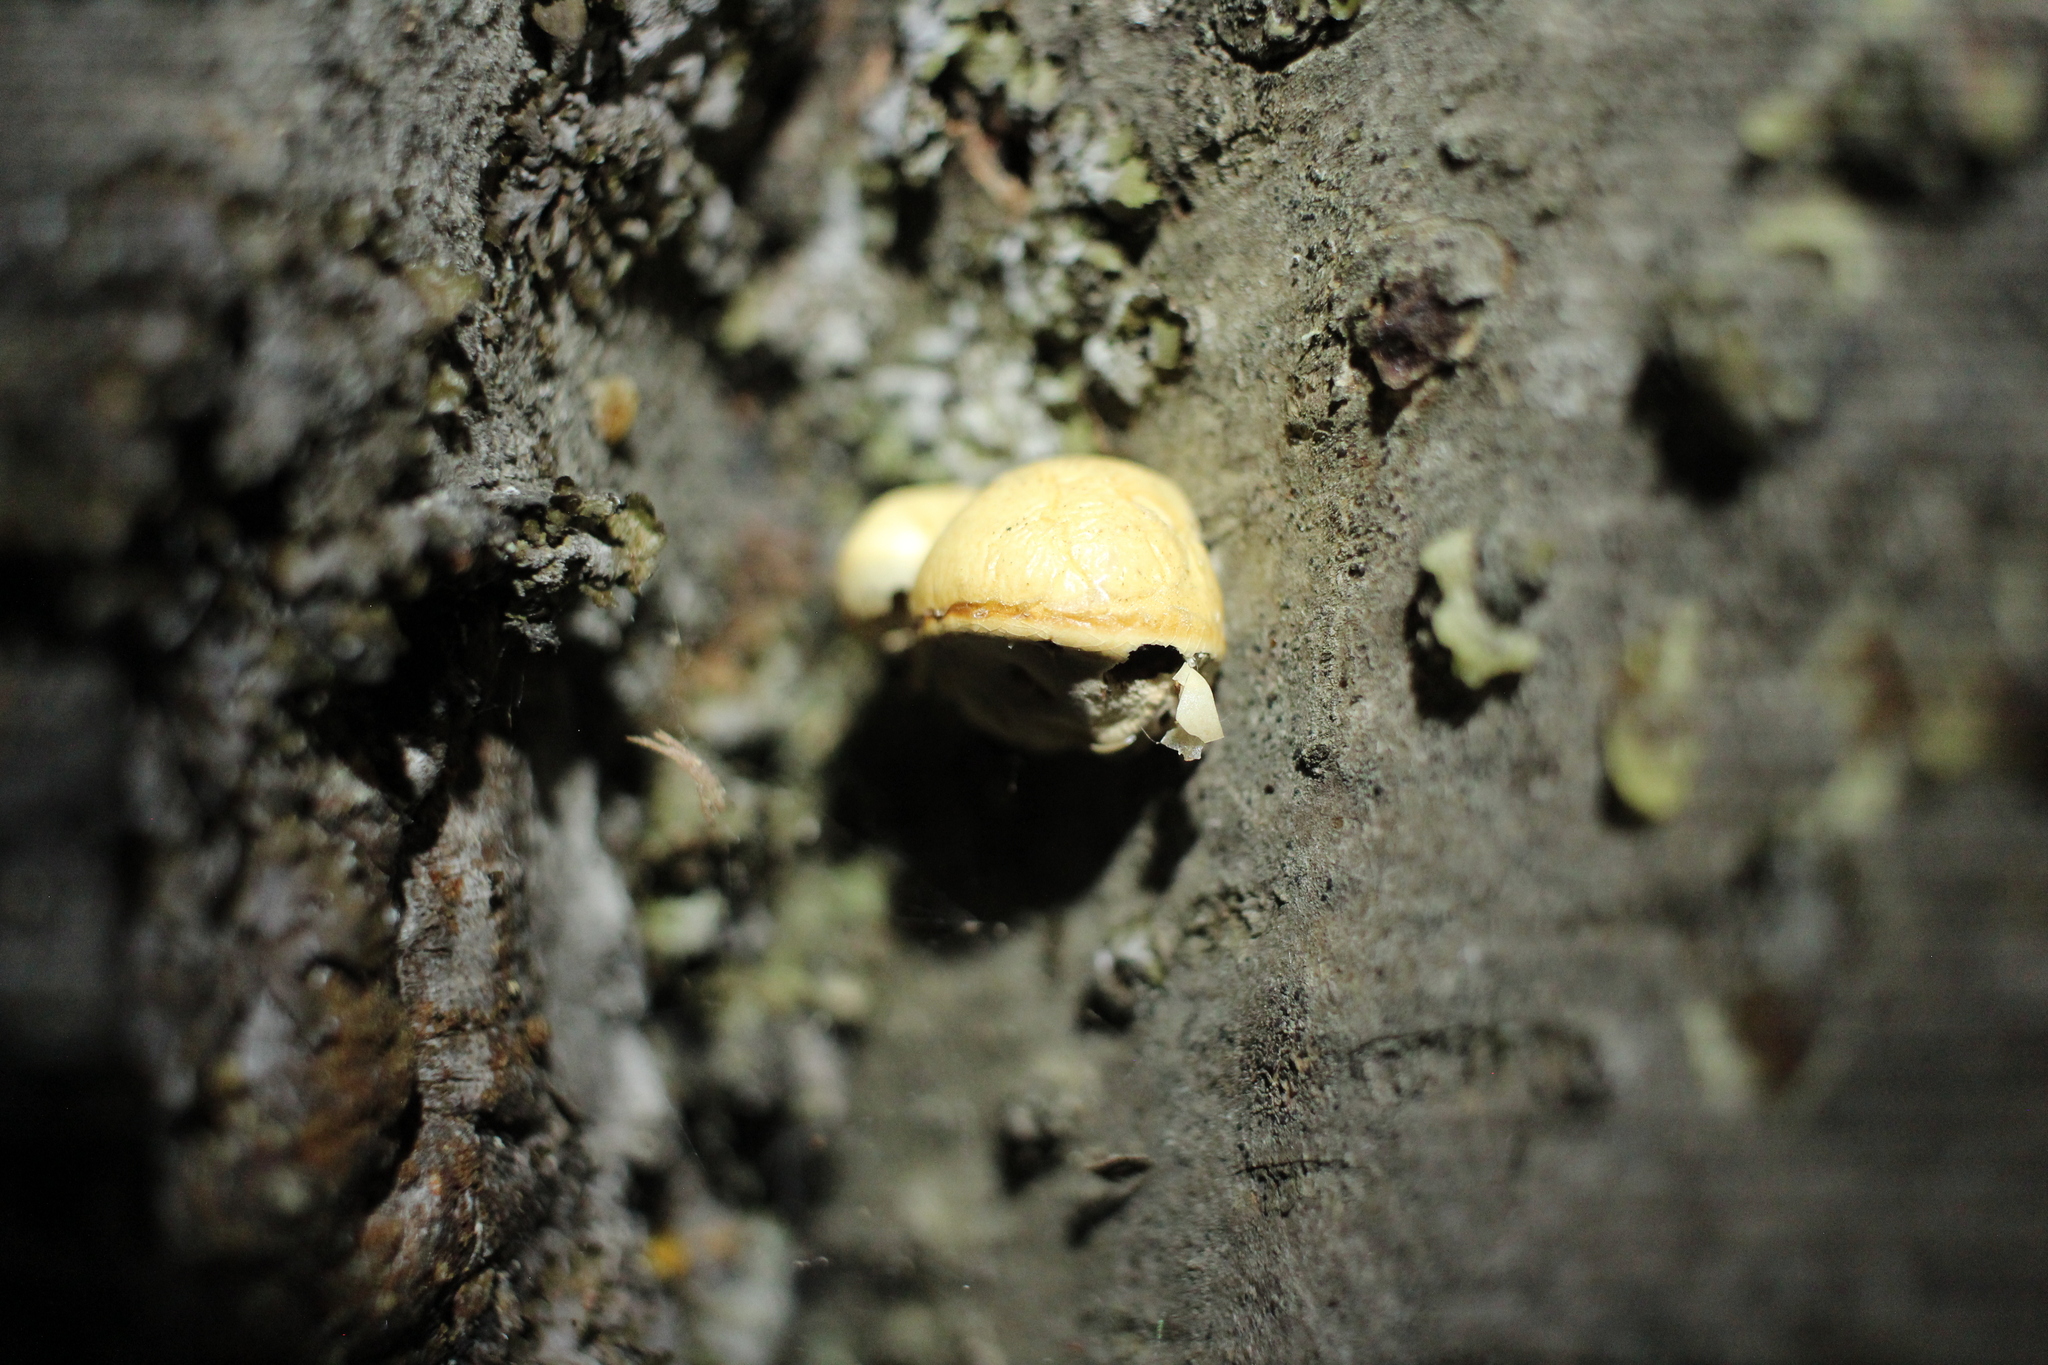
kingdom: Fungi
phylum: Basidiomycota
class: Agaricomycetes
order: Polyporales
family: Polyporaceae
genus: Cryptoporus
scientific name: Cryptoporus volvatus
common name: Veiled polypore
